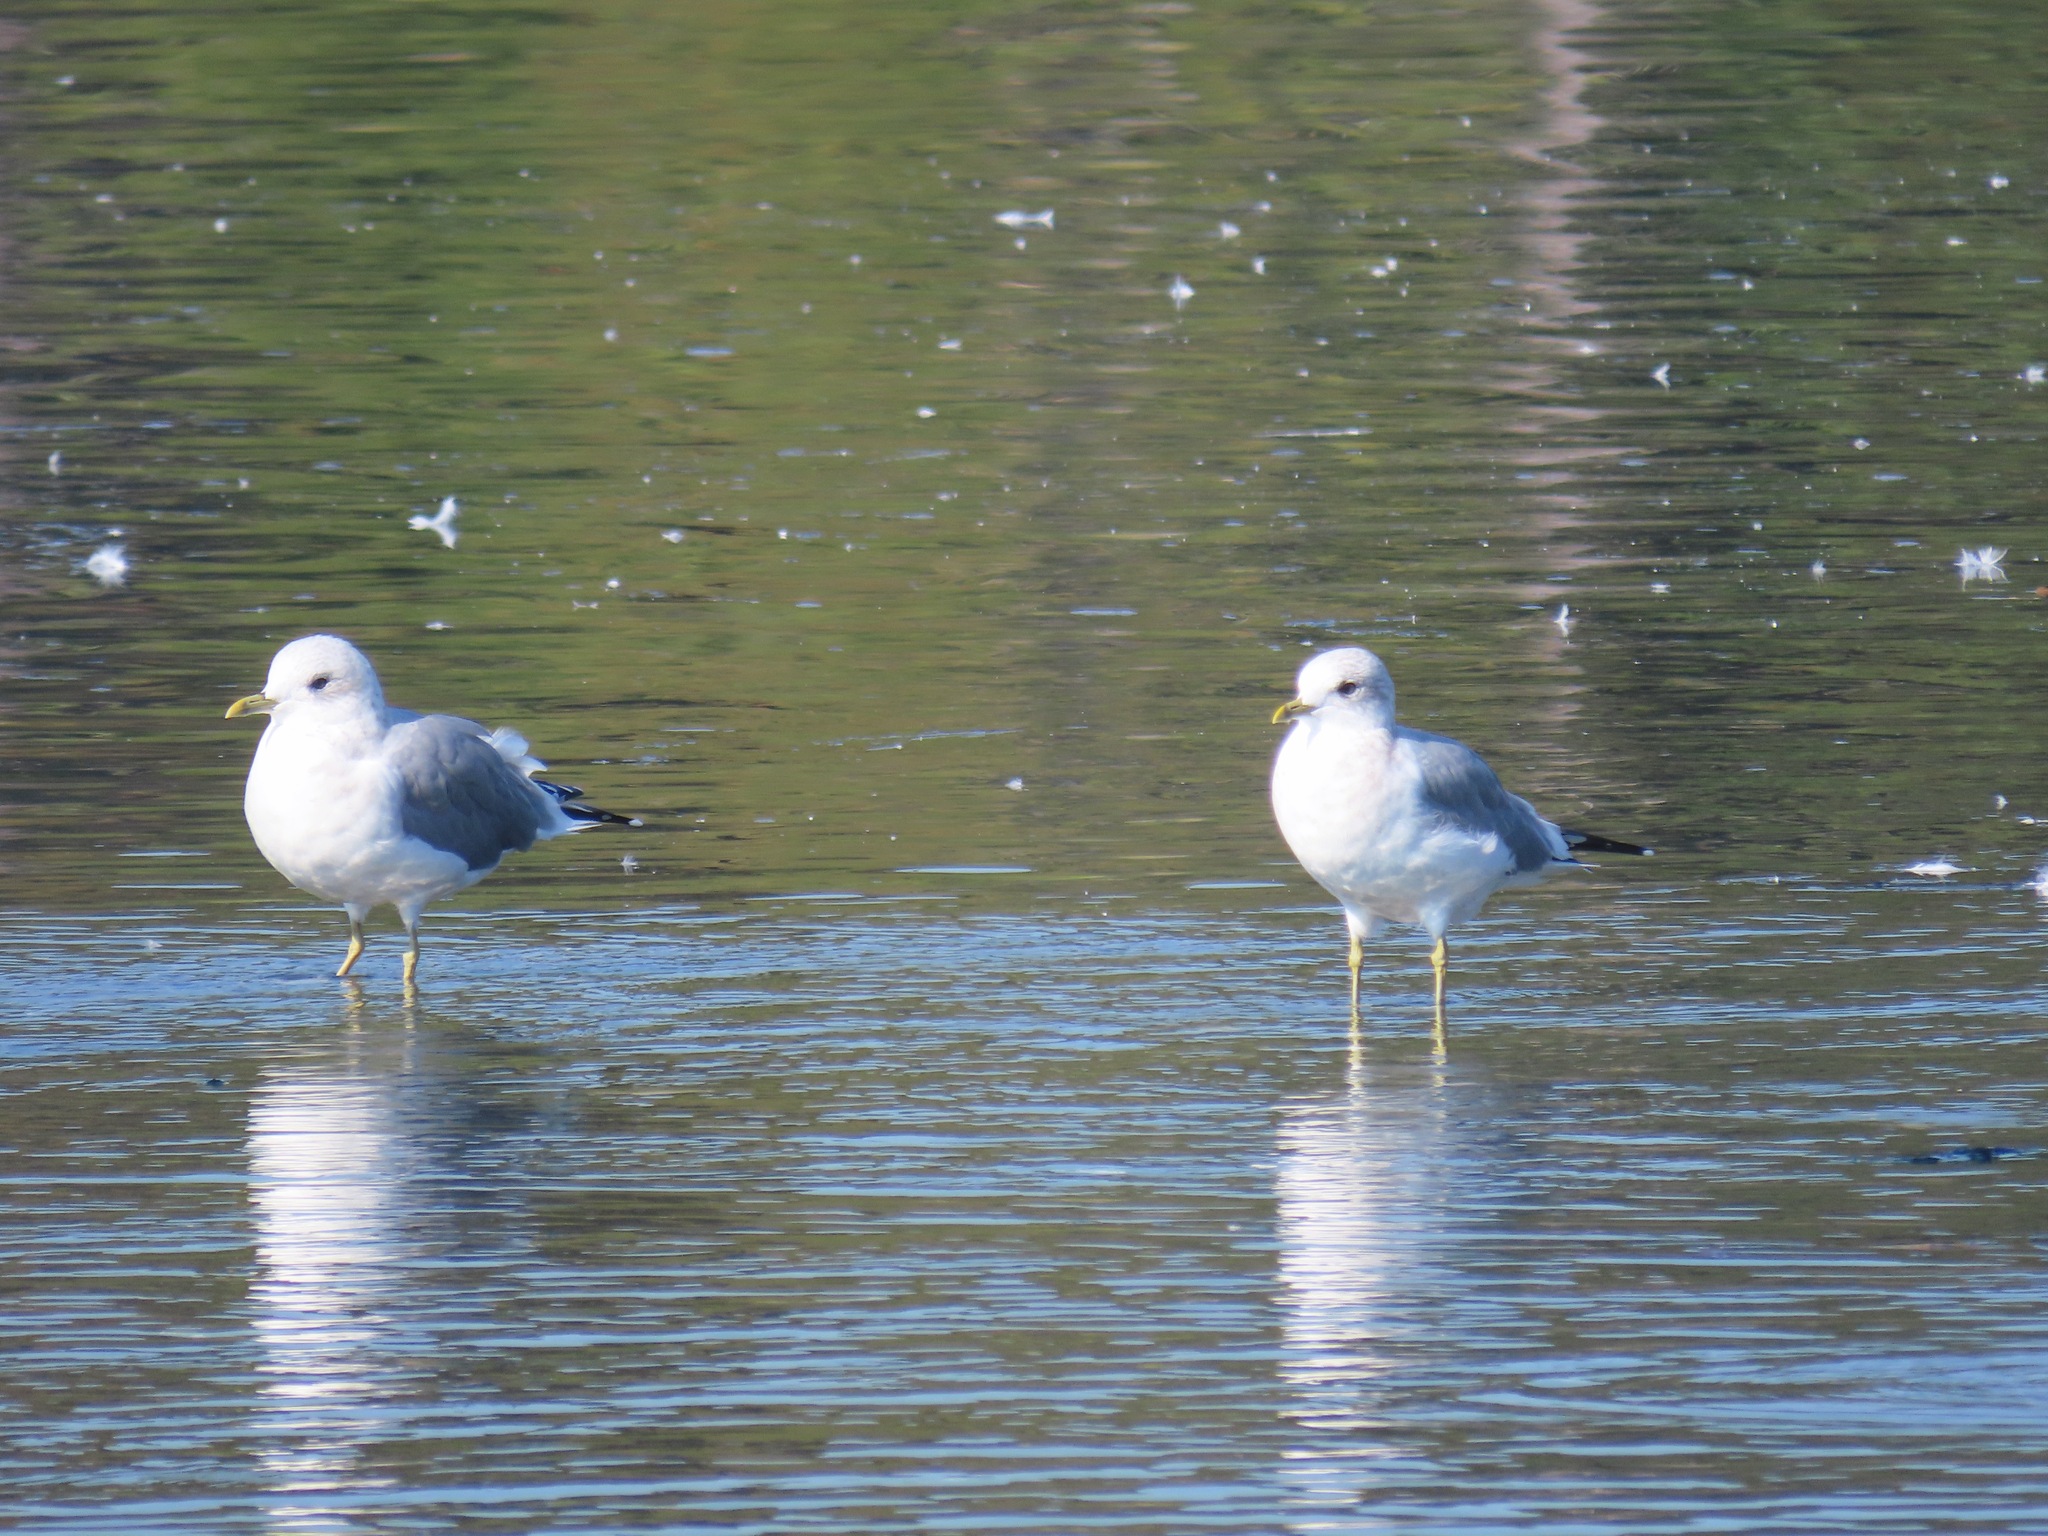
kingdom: Animalia
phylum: Chordata
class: Aves
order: Charadriiformes
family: Laridae
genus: Larus
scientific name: Larus brachyrhynchus
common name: Short-billed gull
